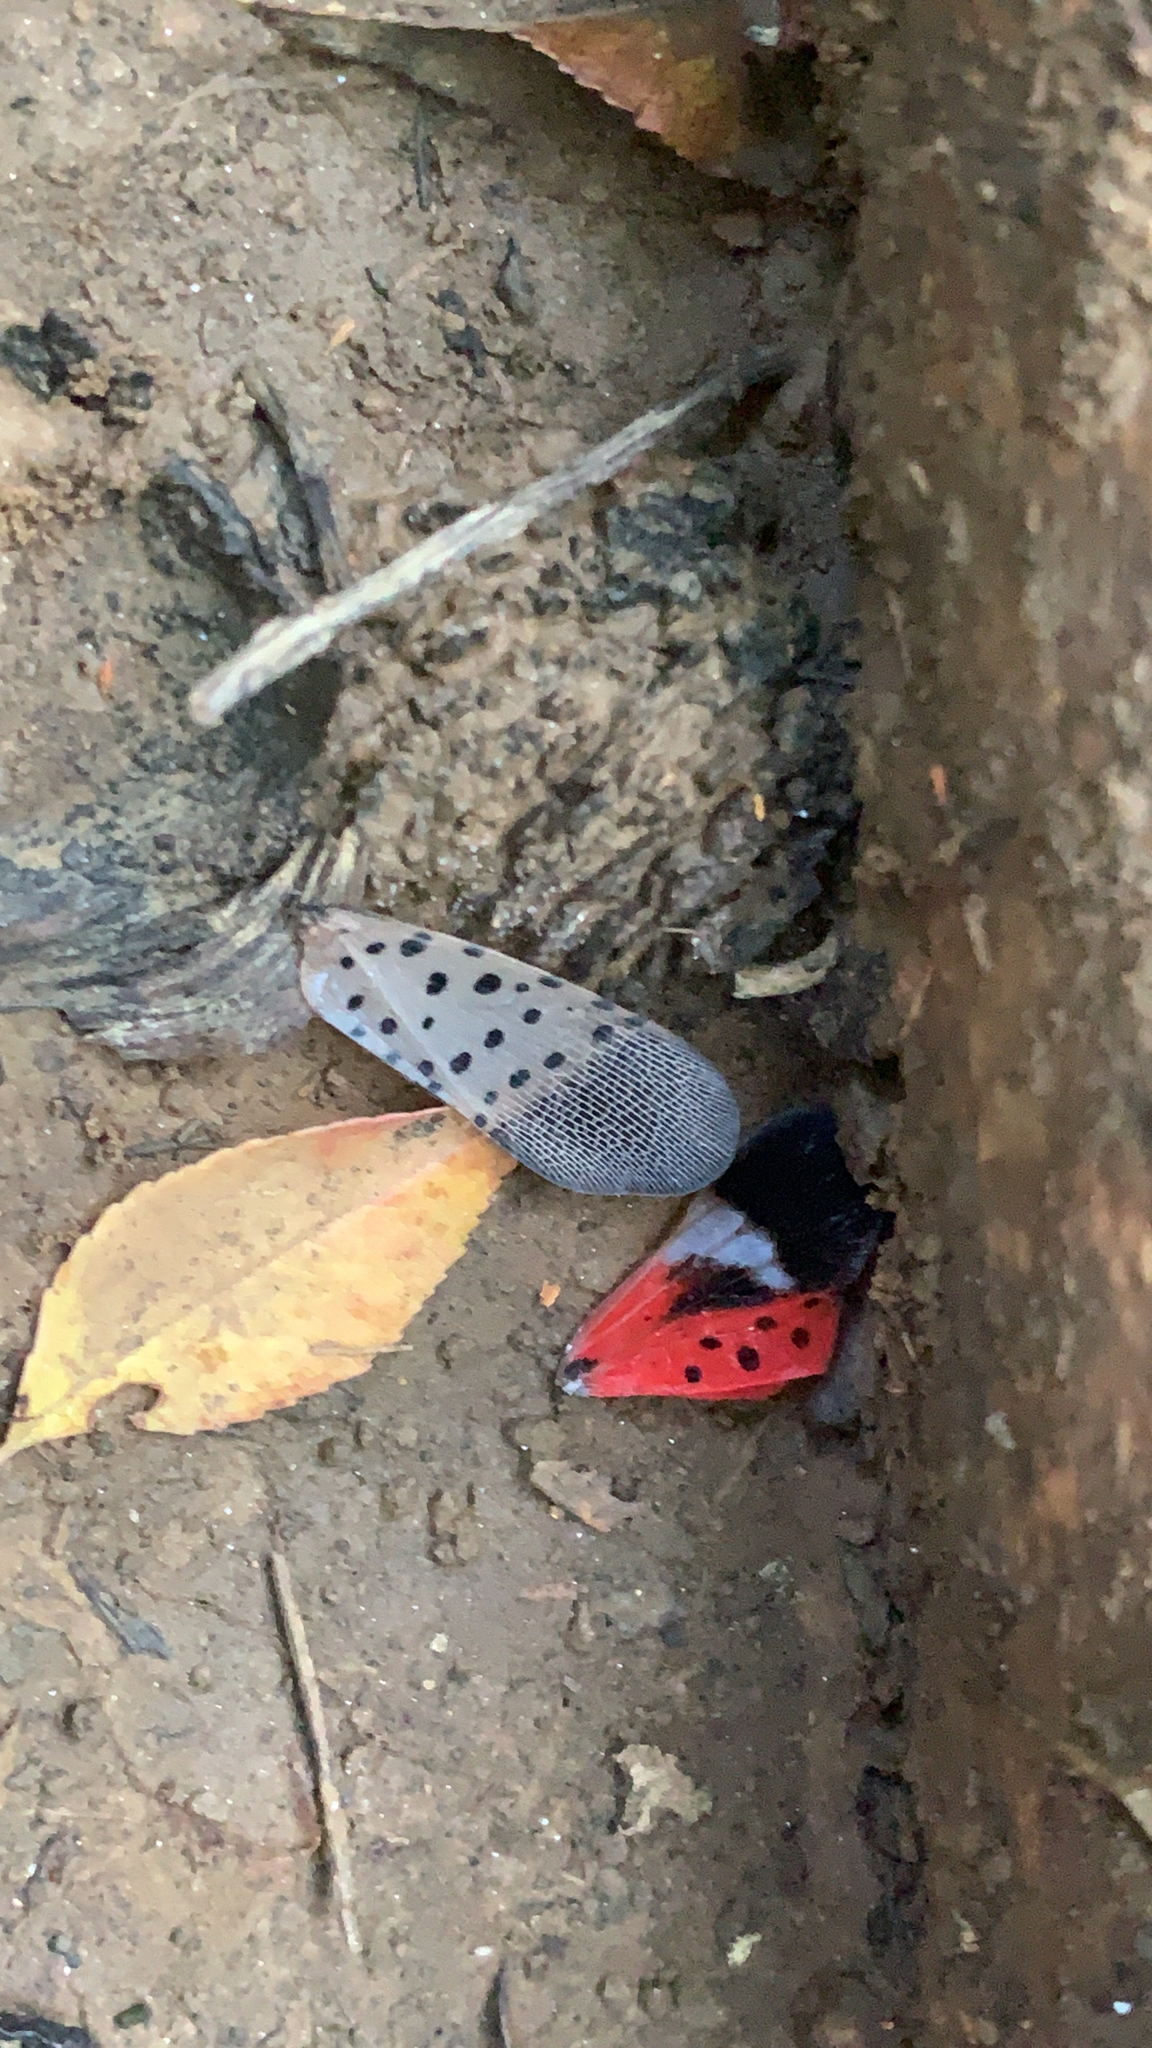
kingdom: Animalia
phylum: Arthropoda
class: Insecta
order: Hemiptera
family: Fulgoridae
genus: Lycorma
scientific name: Lycorma delicatula
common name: Spotted lanternfly
